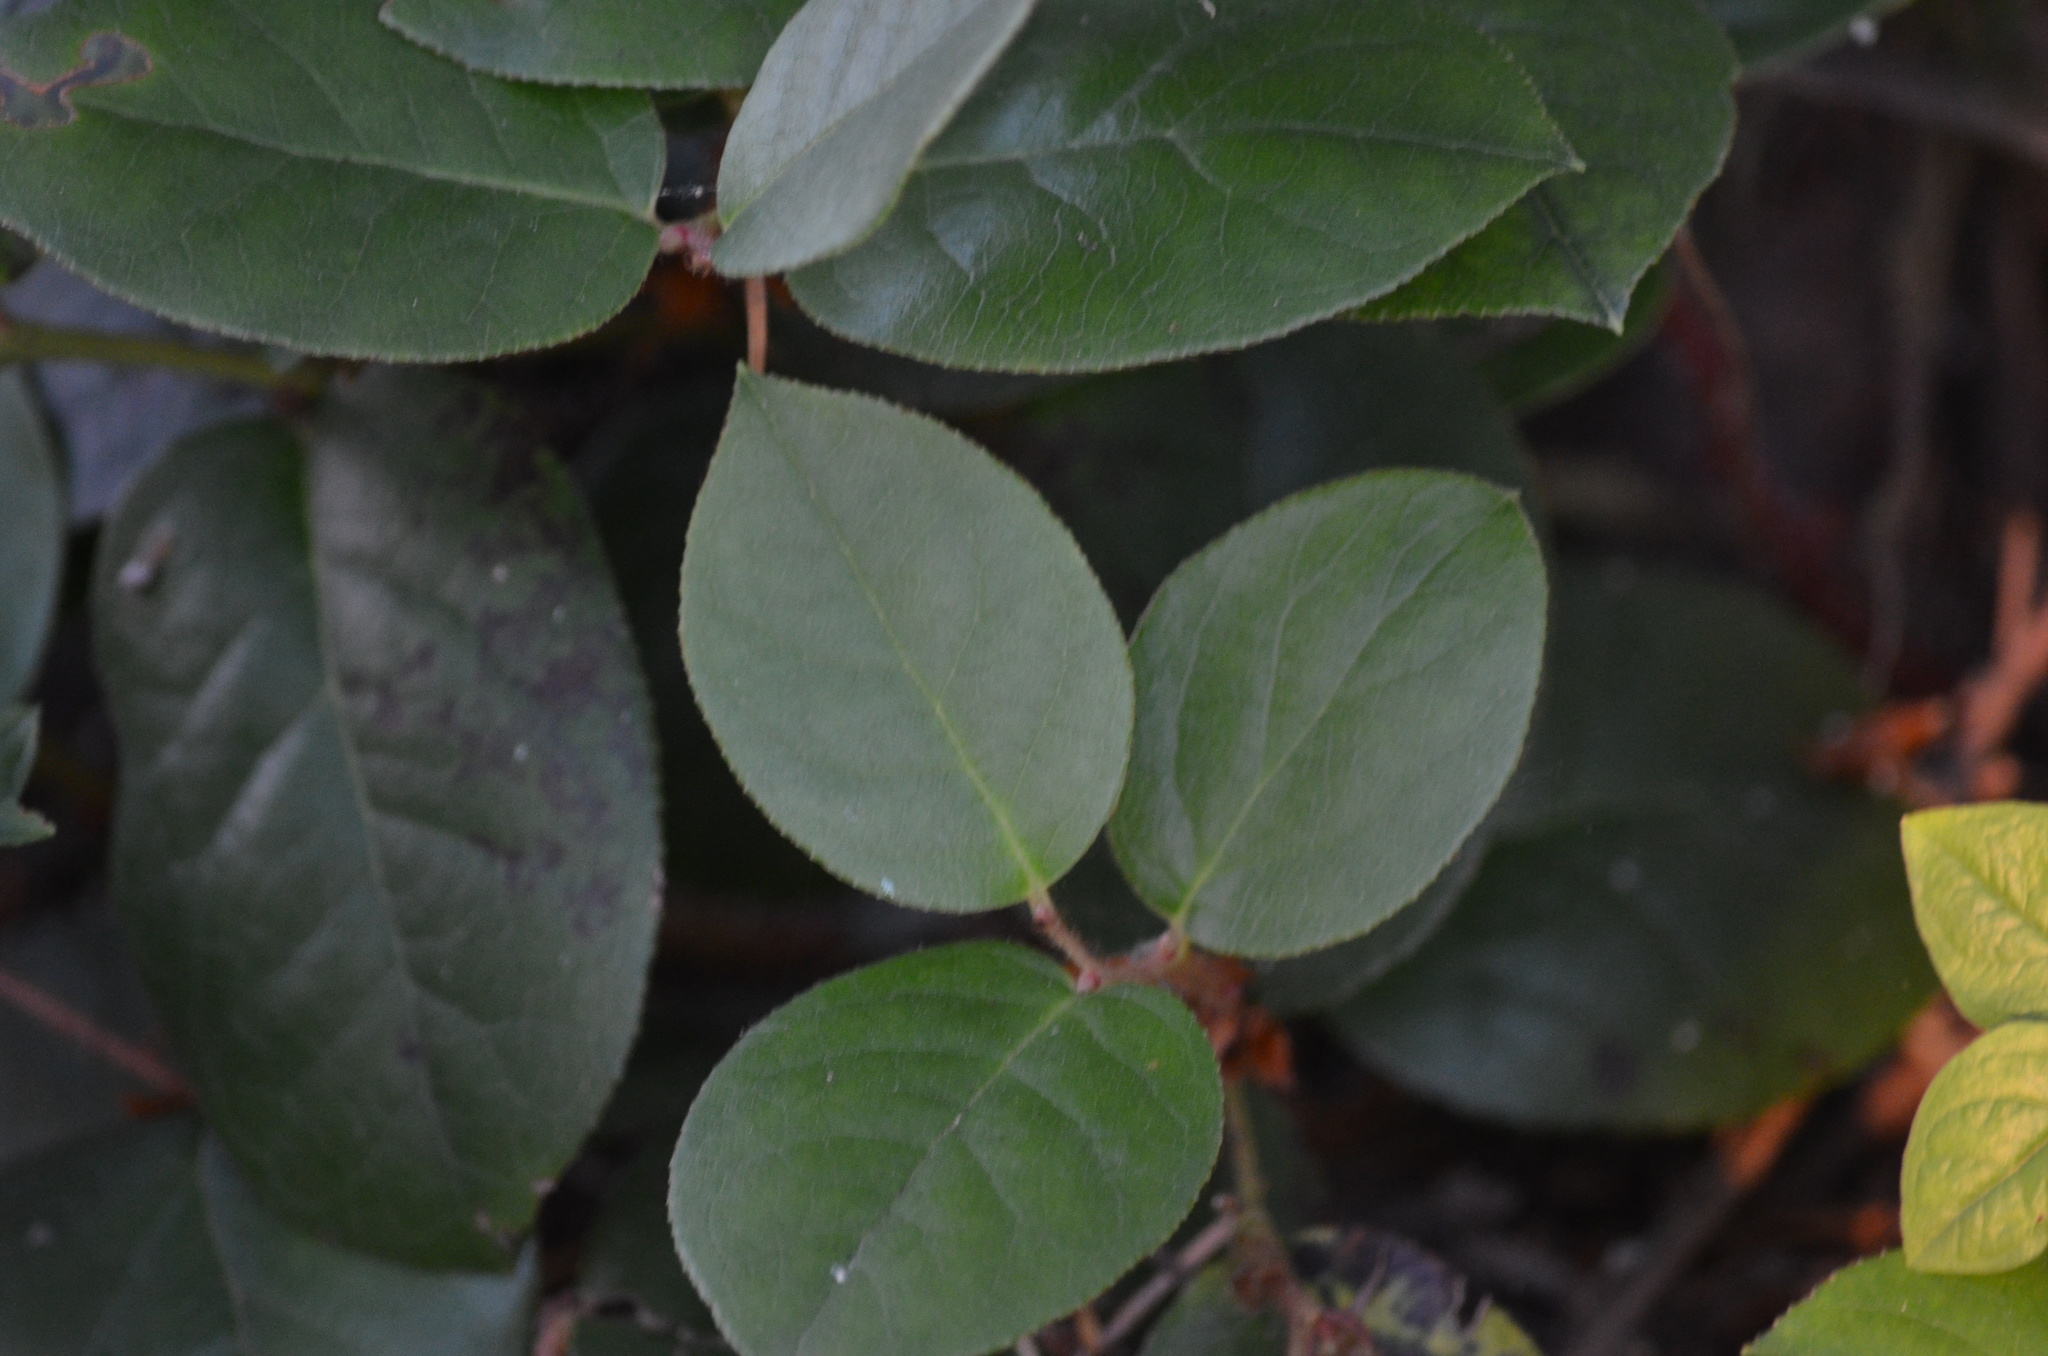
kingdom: Plantae
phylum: Tracheophyta
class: Magnoliopsida
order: Ericales
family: Ericaceae
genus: Gaultheria
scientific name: Gaultheria shallon
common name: Shallon
